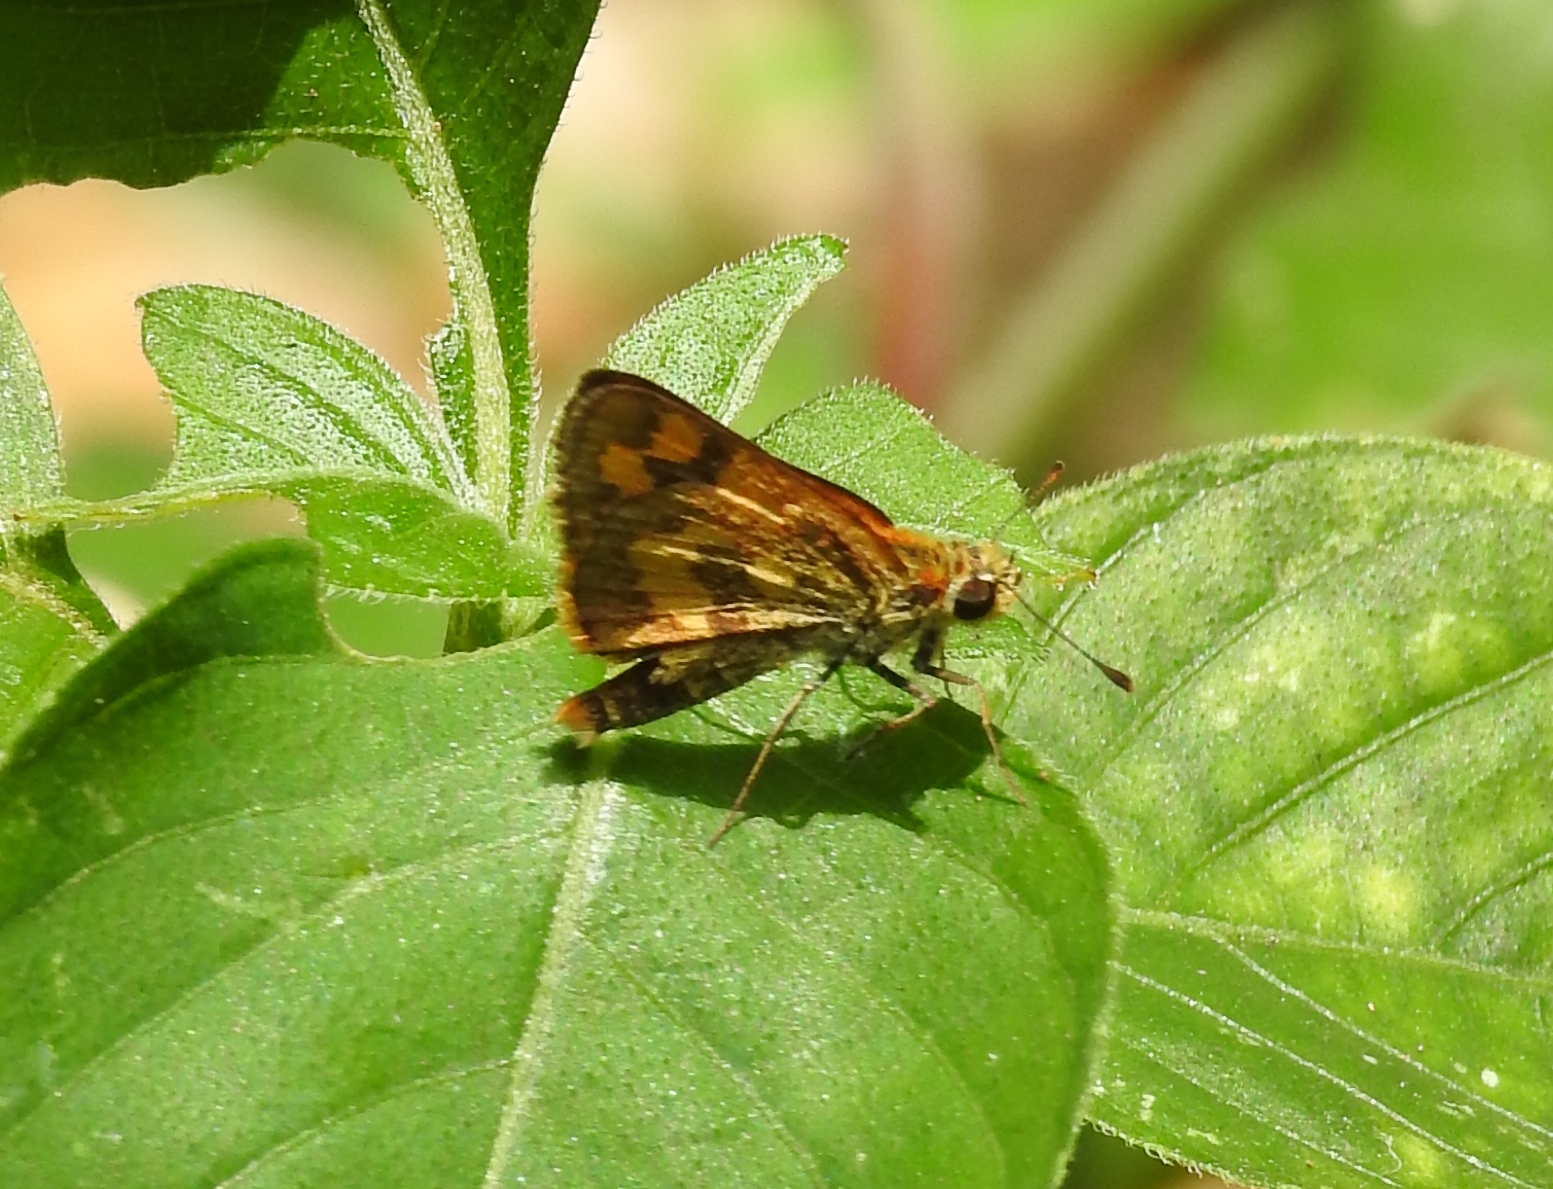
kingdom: Animalia
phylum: Arthropoda
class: Insecta
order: Lepidoptera
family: Hesperiidae
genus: Taractrocera
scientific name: Taractrocera archias
